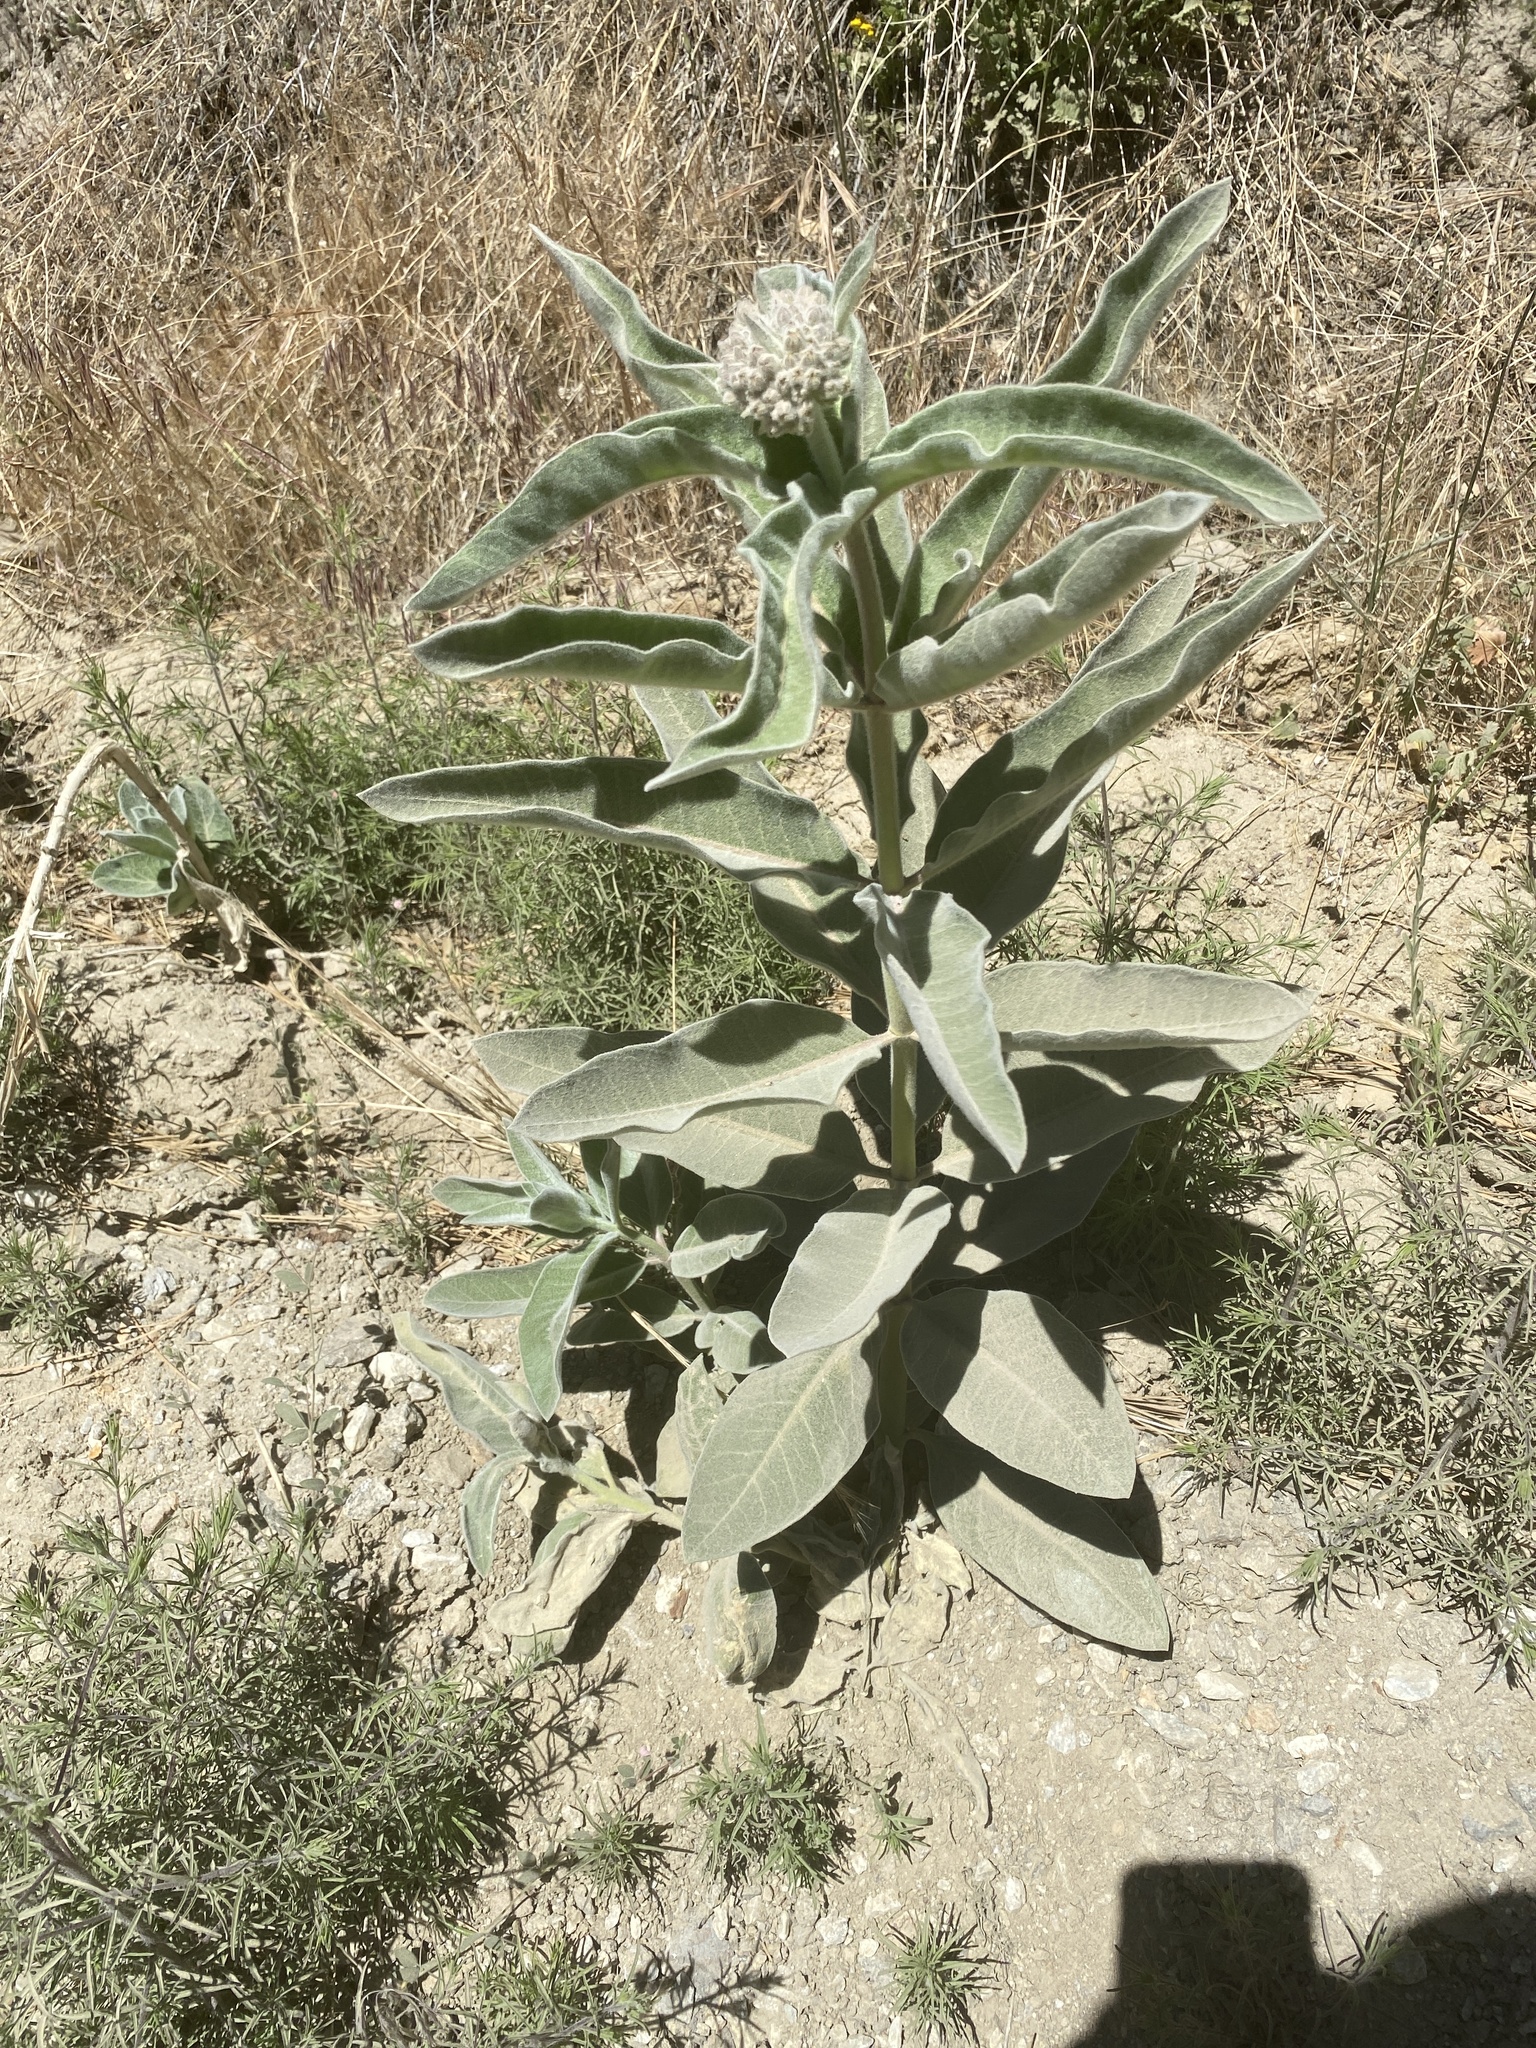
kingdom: Plantae
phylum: Tracheophyta
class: Magnoliopsida
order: Gentianales
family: Apocynaceae
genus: Asclepias
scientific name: Asclepias eriocarpa
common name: Indian milkweed
